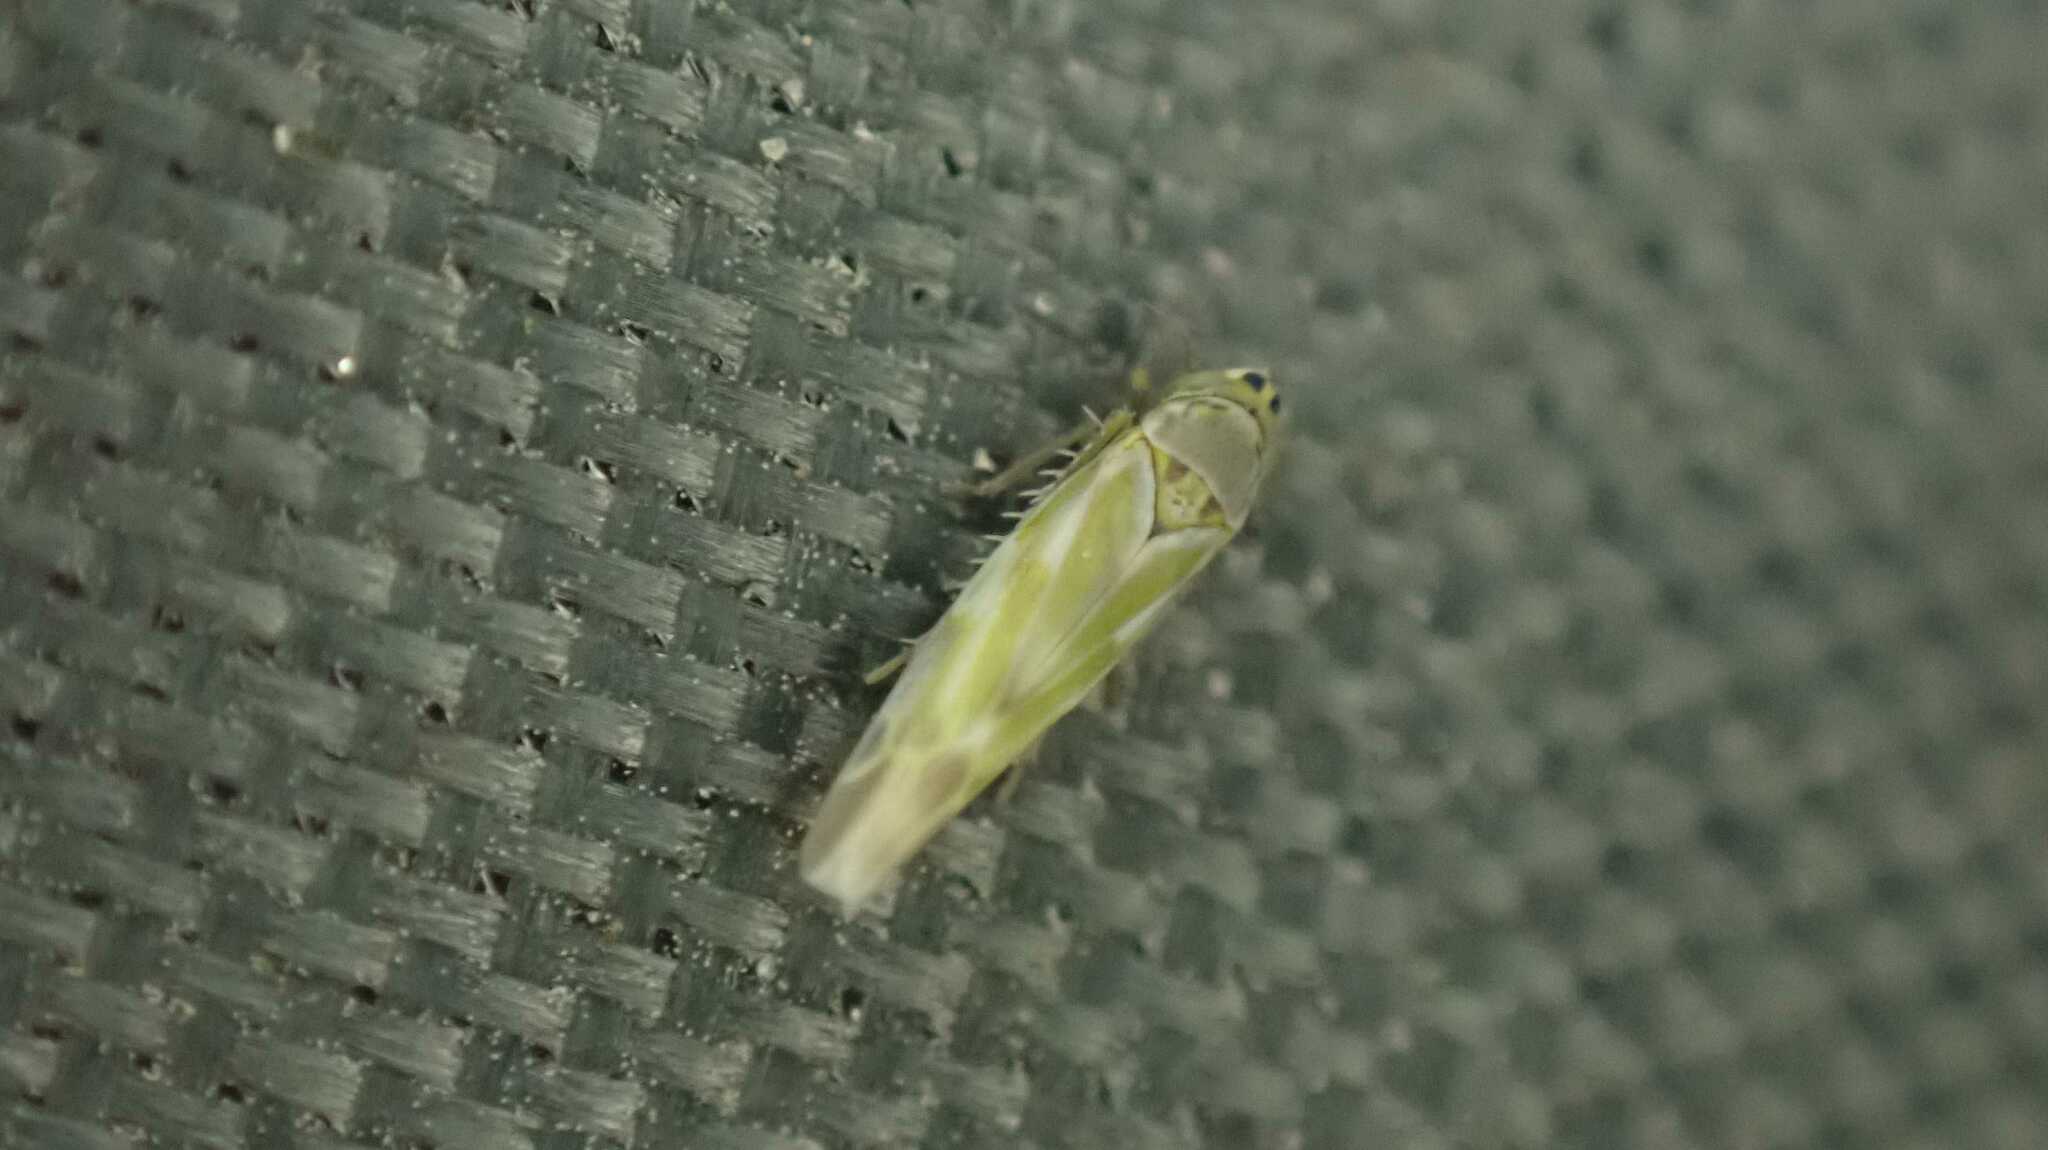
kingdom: Animalia
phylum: Arthropoda
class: Insecta
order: Hemiptera
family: Cicadellidae
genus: Frutioidia
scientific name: Frutioidia bisignata
